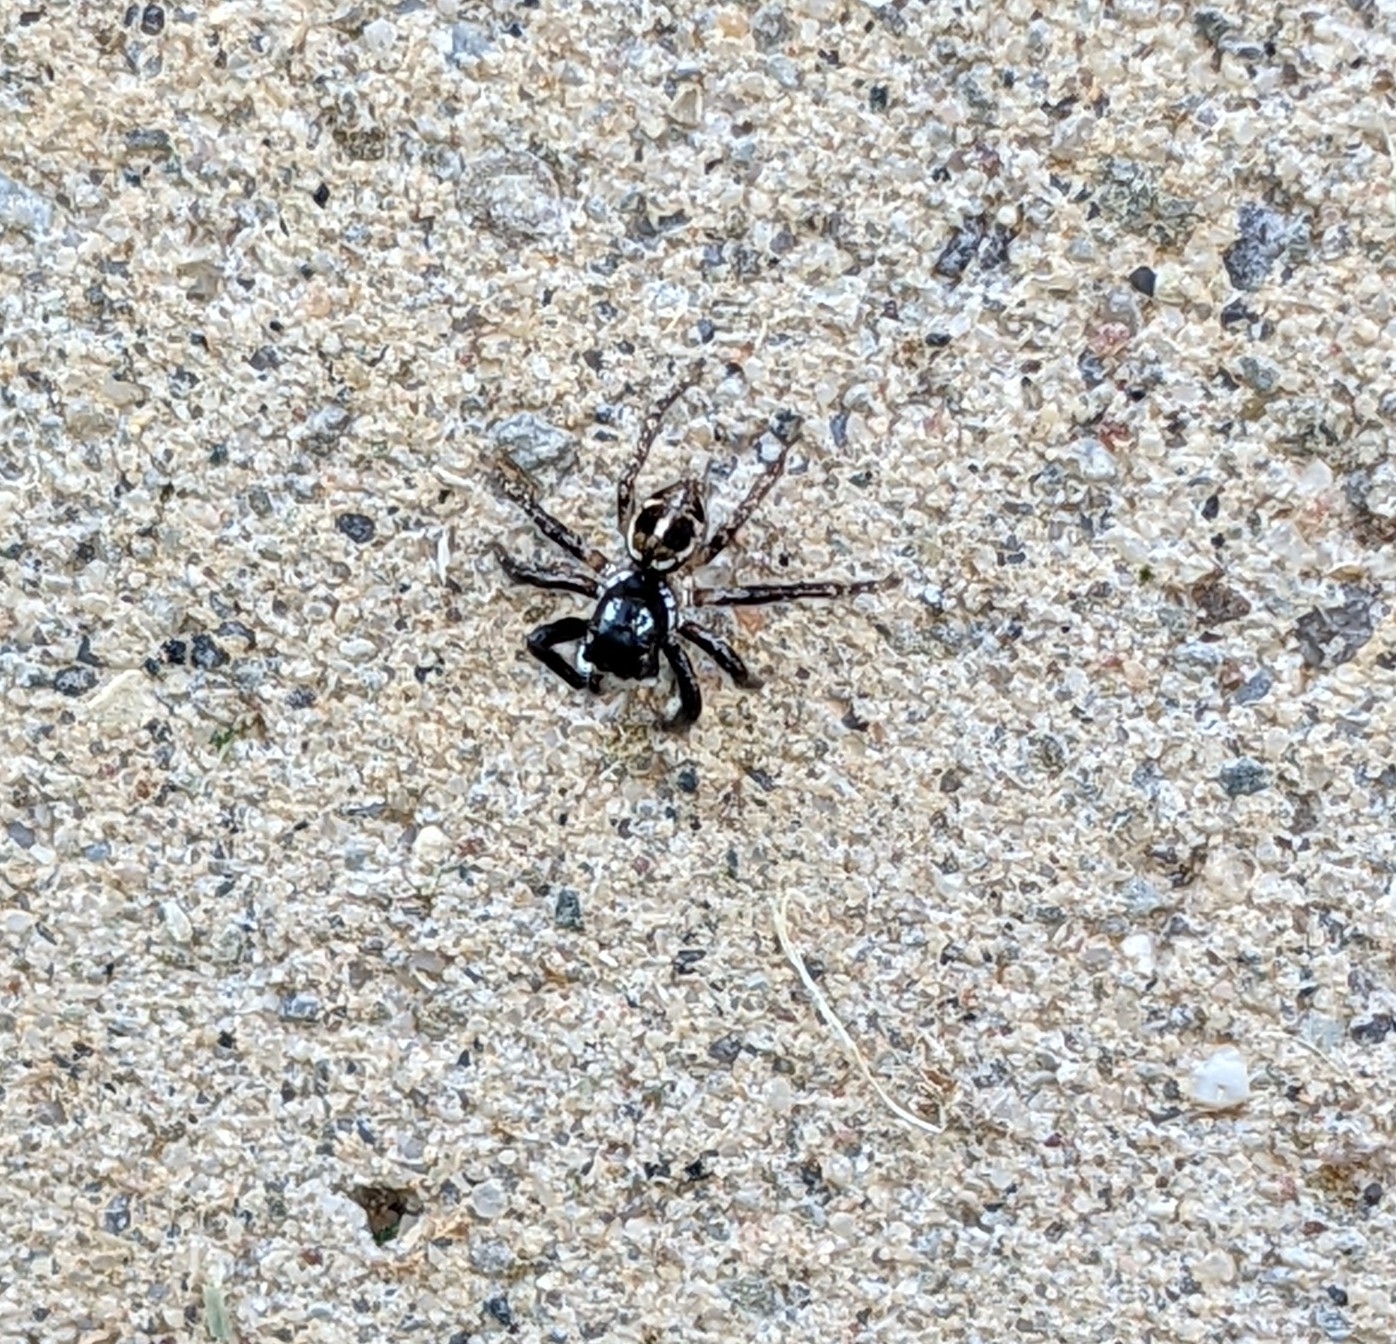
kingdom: Animalia
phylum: Arthropoda
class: Arachnida
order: Araneae
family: Salticidae
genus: Anasaitis
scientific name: Anasaitis canosa
